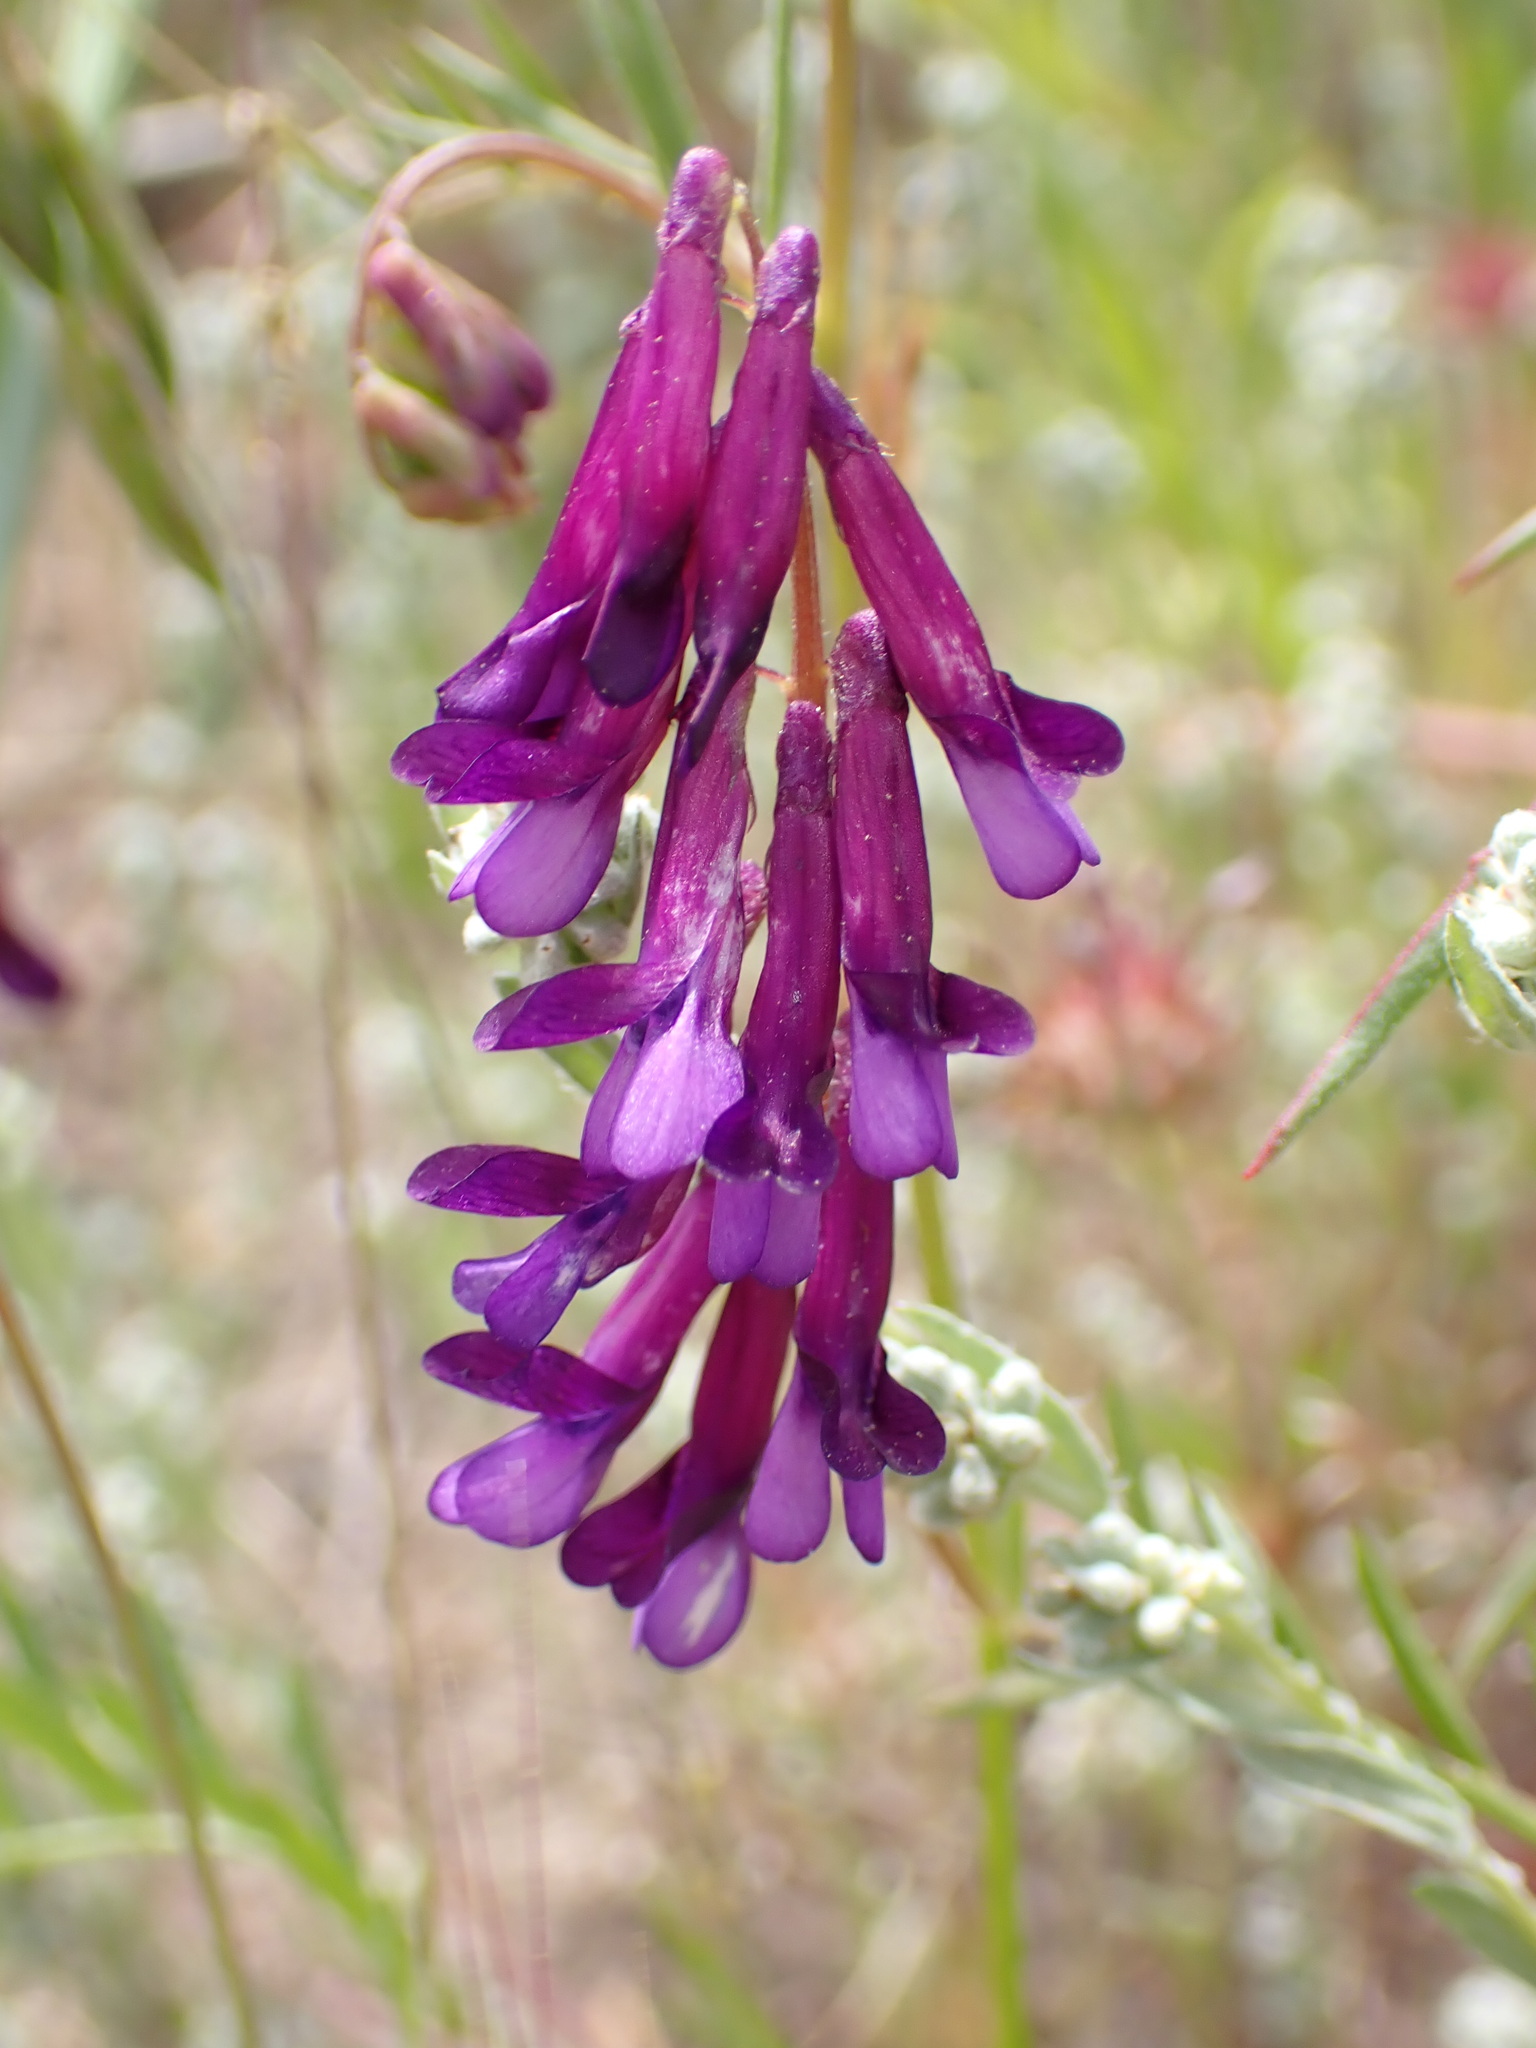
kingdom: Plantae
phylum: Tracheophyta
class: Magnoliopsida
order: Fabales
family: Fabaceae
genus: Vicia
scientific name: Vicia villosa
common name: Fodder vetch
